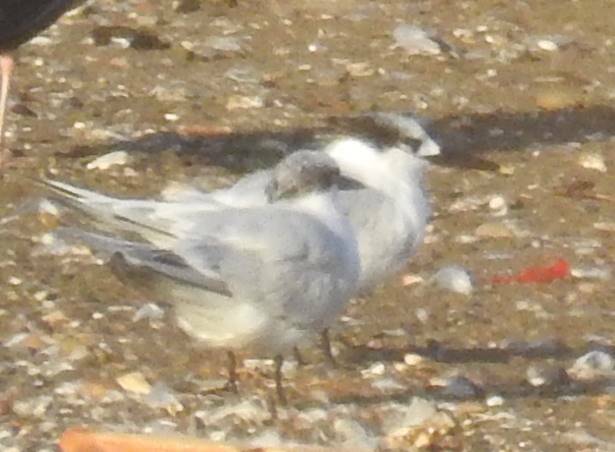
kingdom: Animalia
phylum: Chordata
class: Aves
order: Charadriiformes
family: Laridae
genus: Thalasseus
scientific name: Thalasseus sandvicensis
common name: Sandwich tern
